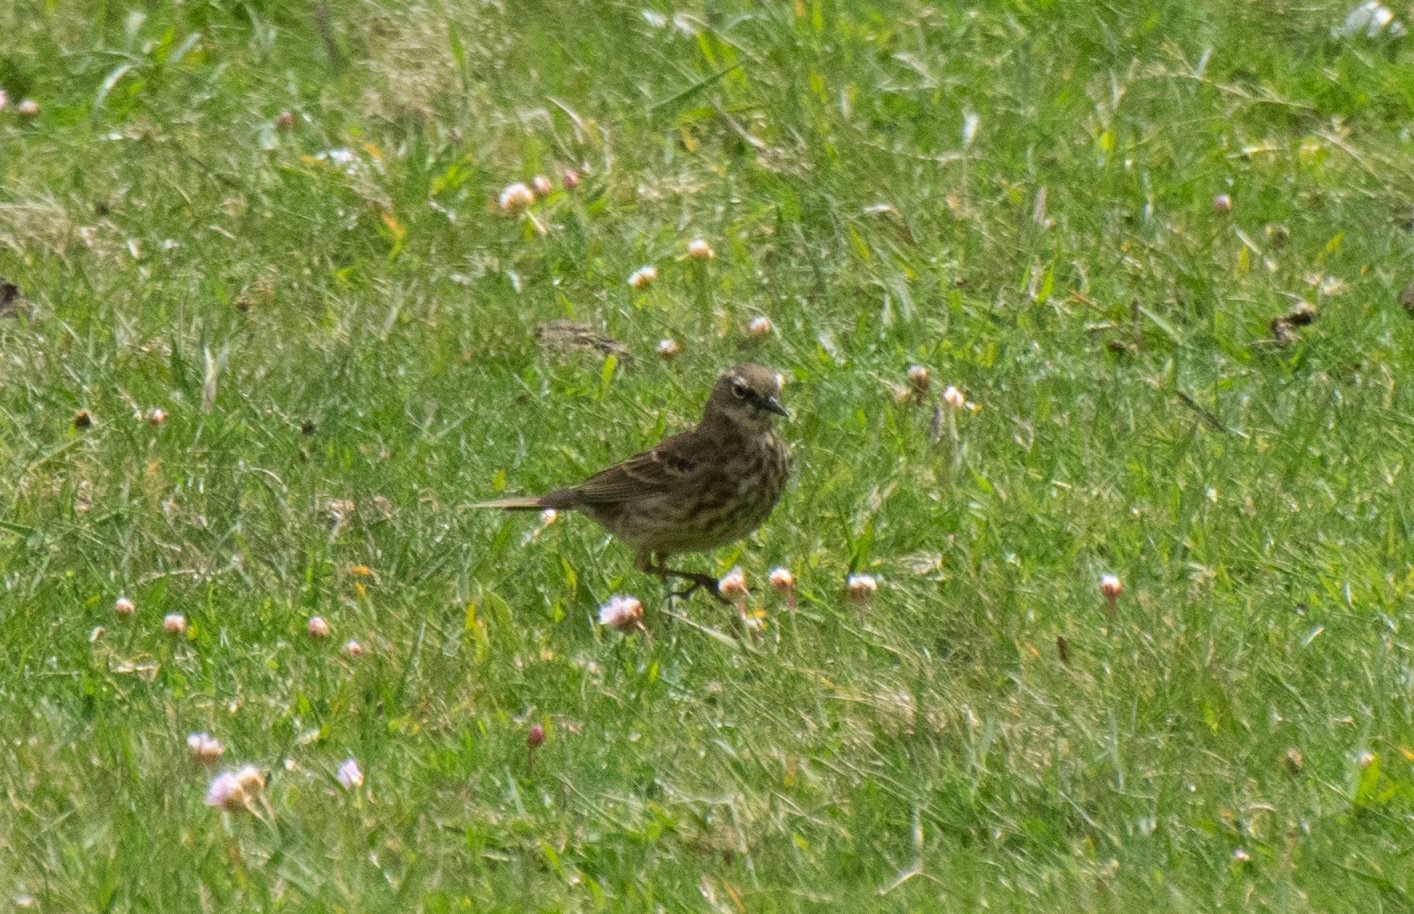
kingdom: Animalia
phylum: Chordata
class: Aves
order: Passeriformes
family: Motacillidae
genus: Anthus
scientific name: Anthus petrosus
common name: Eurasian rock pipit
